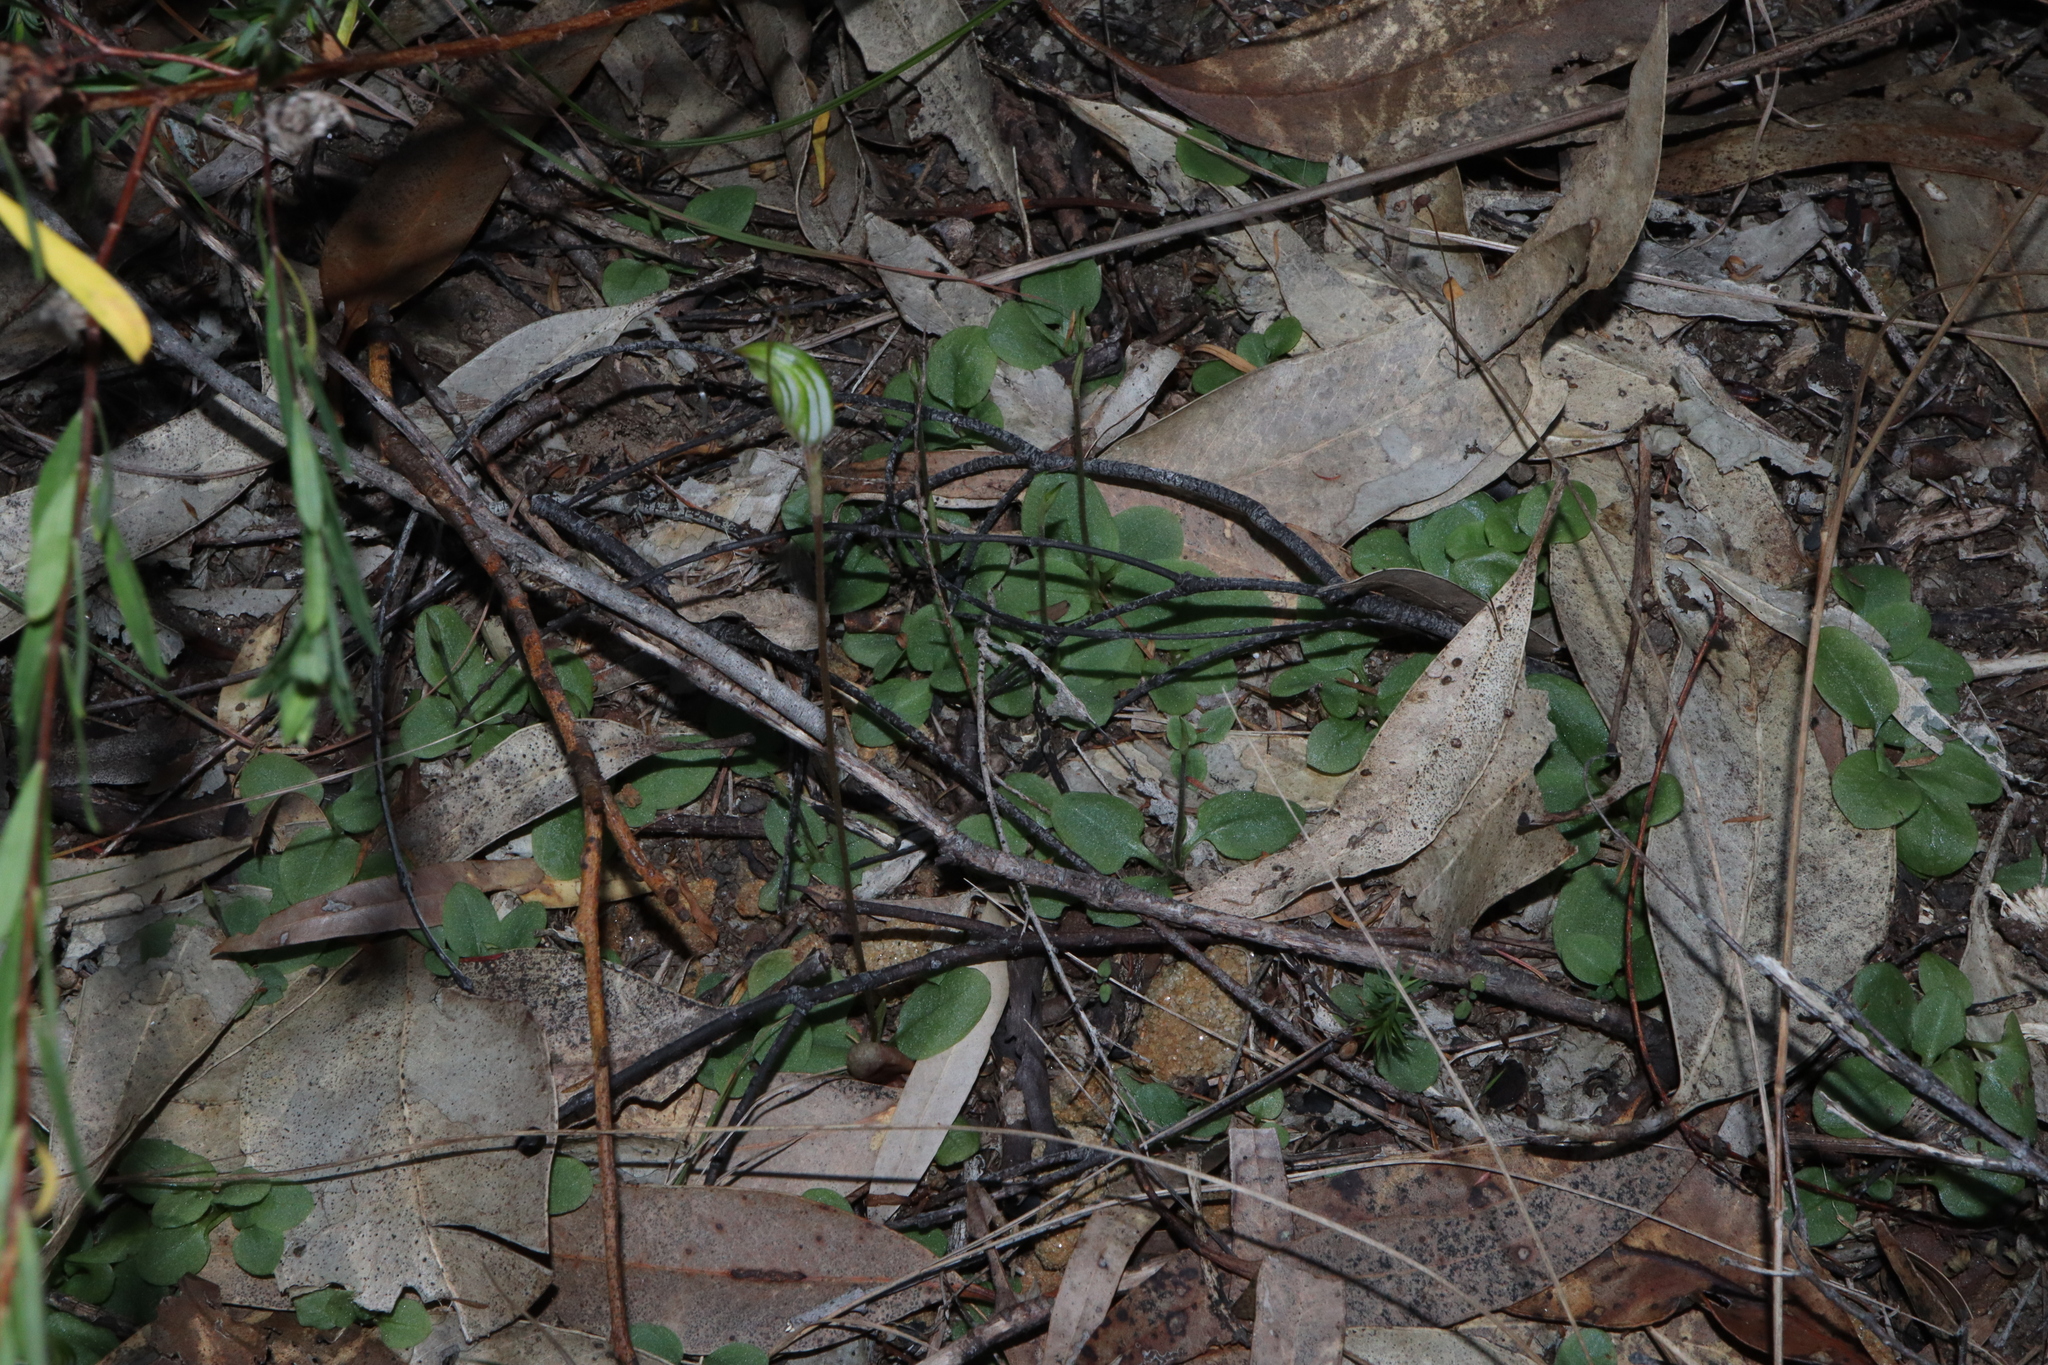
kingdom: Plantae
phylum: Tracheophyta
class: Liliopsida
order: Asparagales
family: Orchidaceae
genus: Pterostylis
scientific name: Pterostylis concinna
